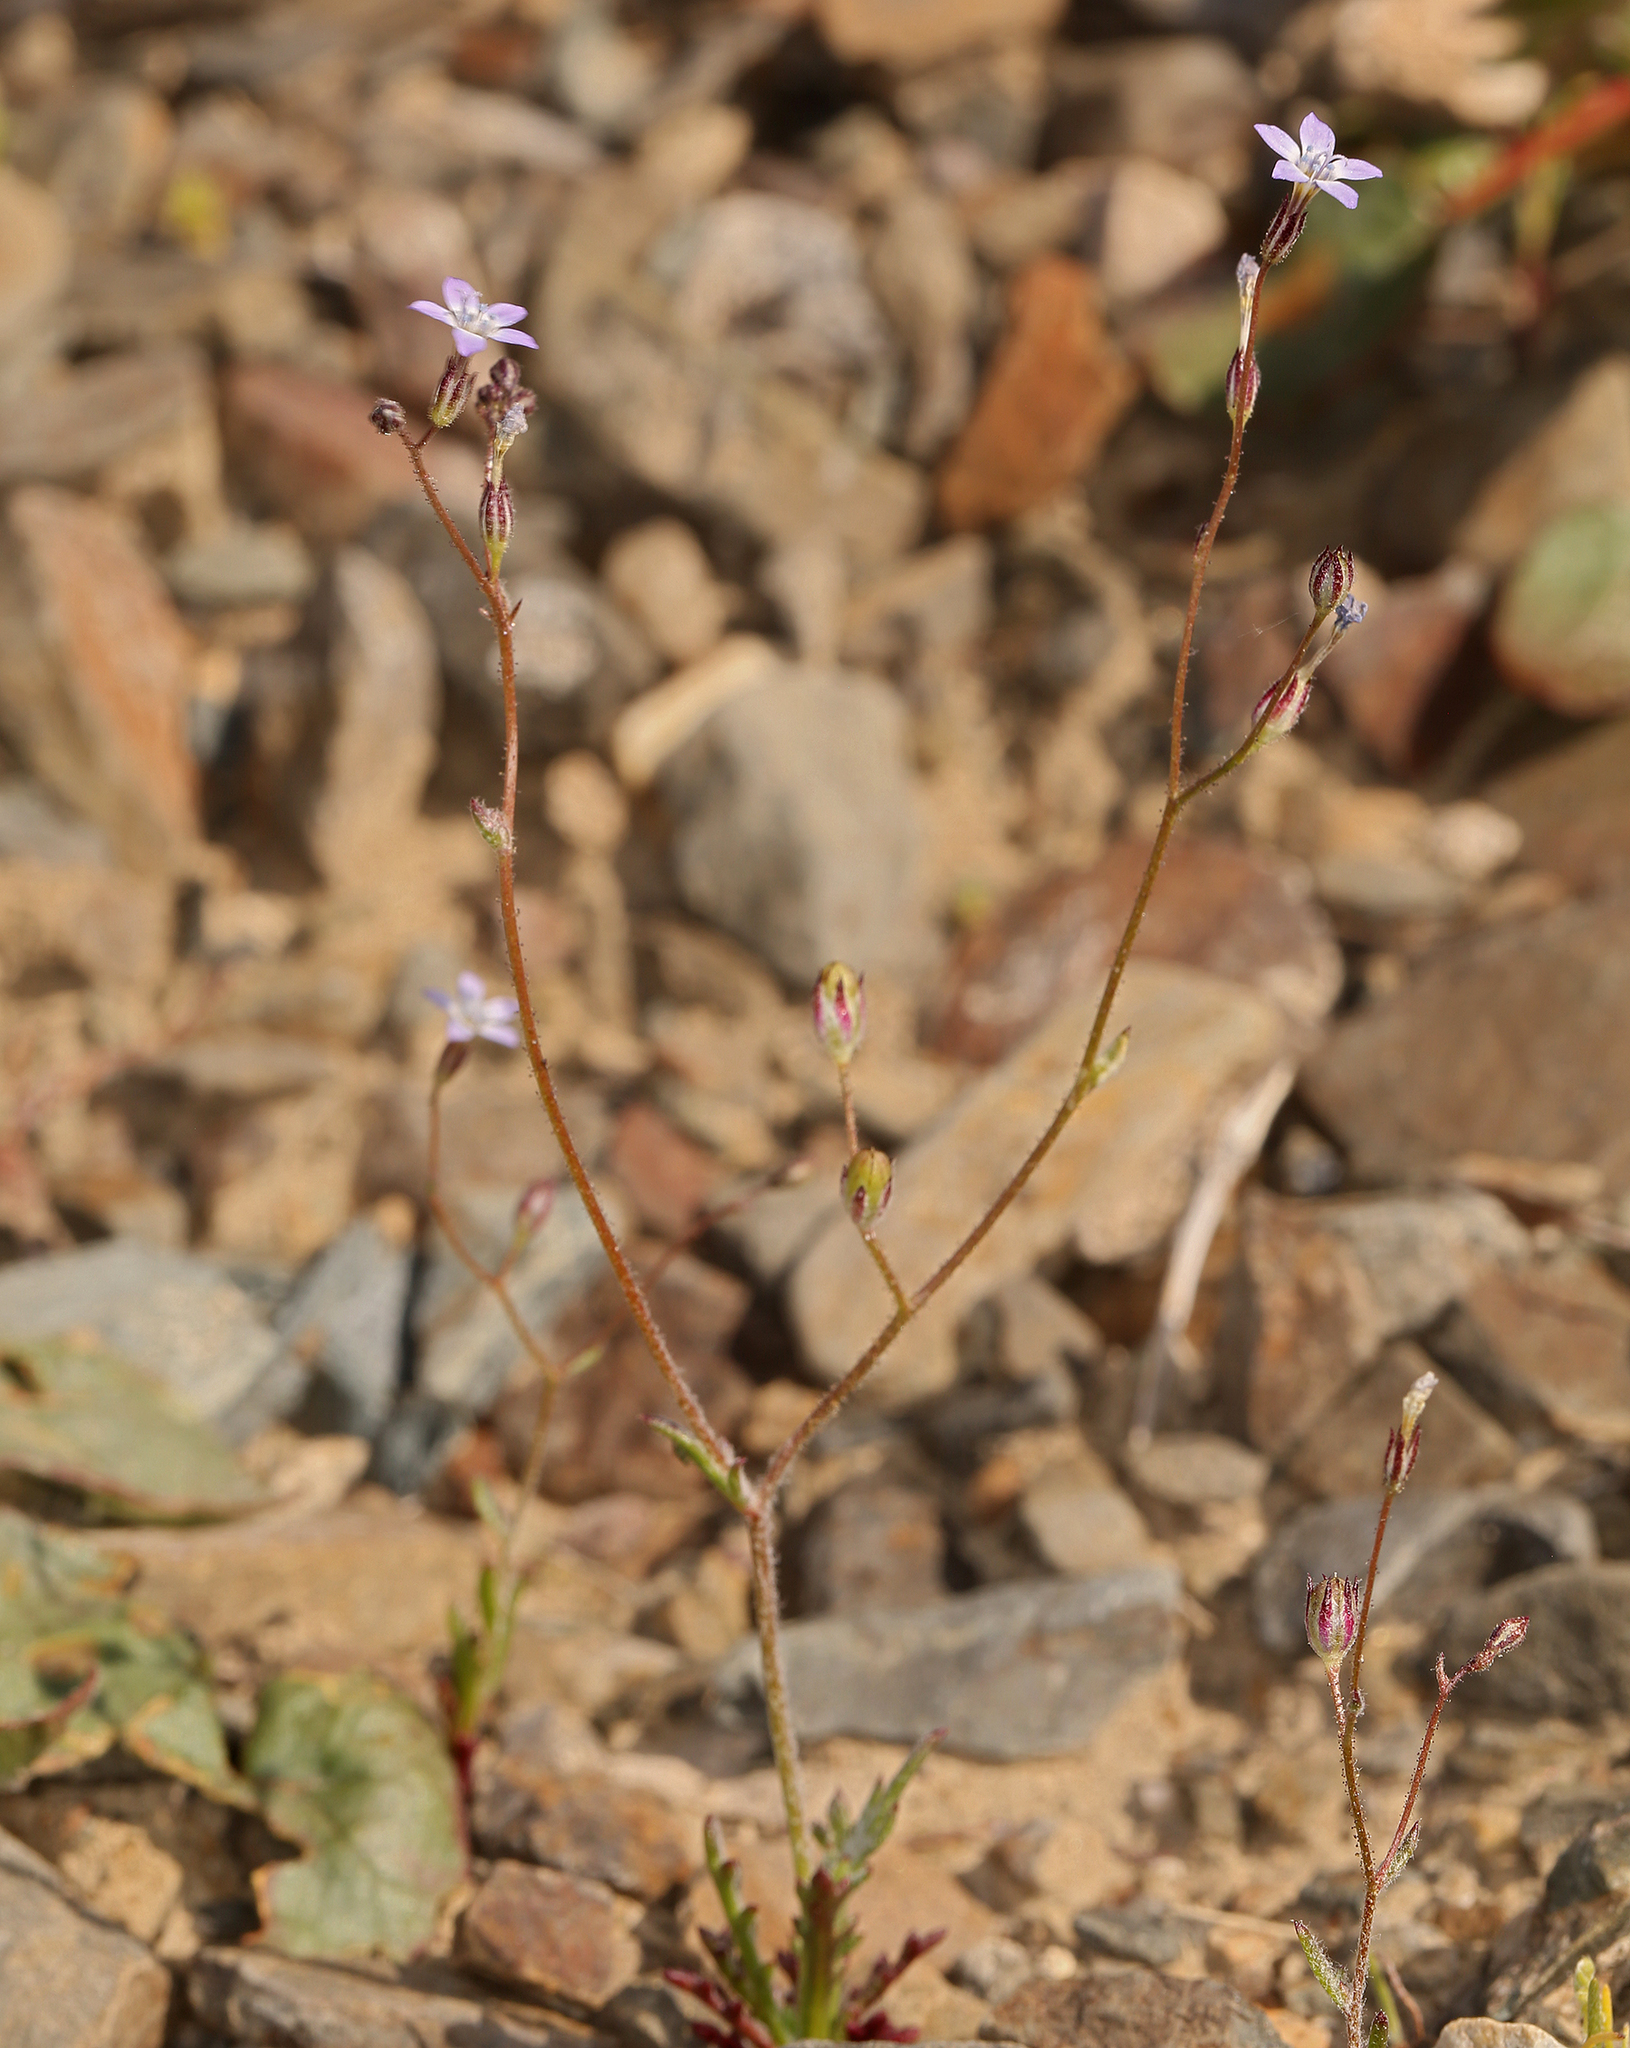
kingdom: Plantae
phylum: Tracheophyta
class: Magnoliopsida
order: Ericales
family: Polemoniaceae
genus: Gilia
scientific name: Gilia transmontana
